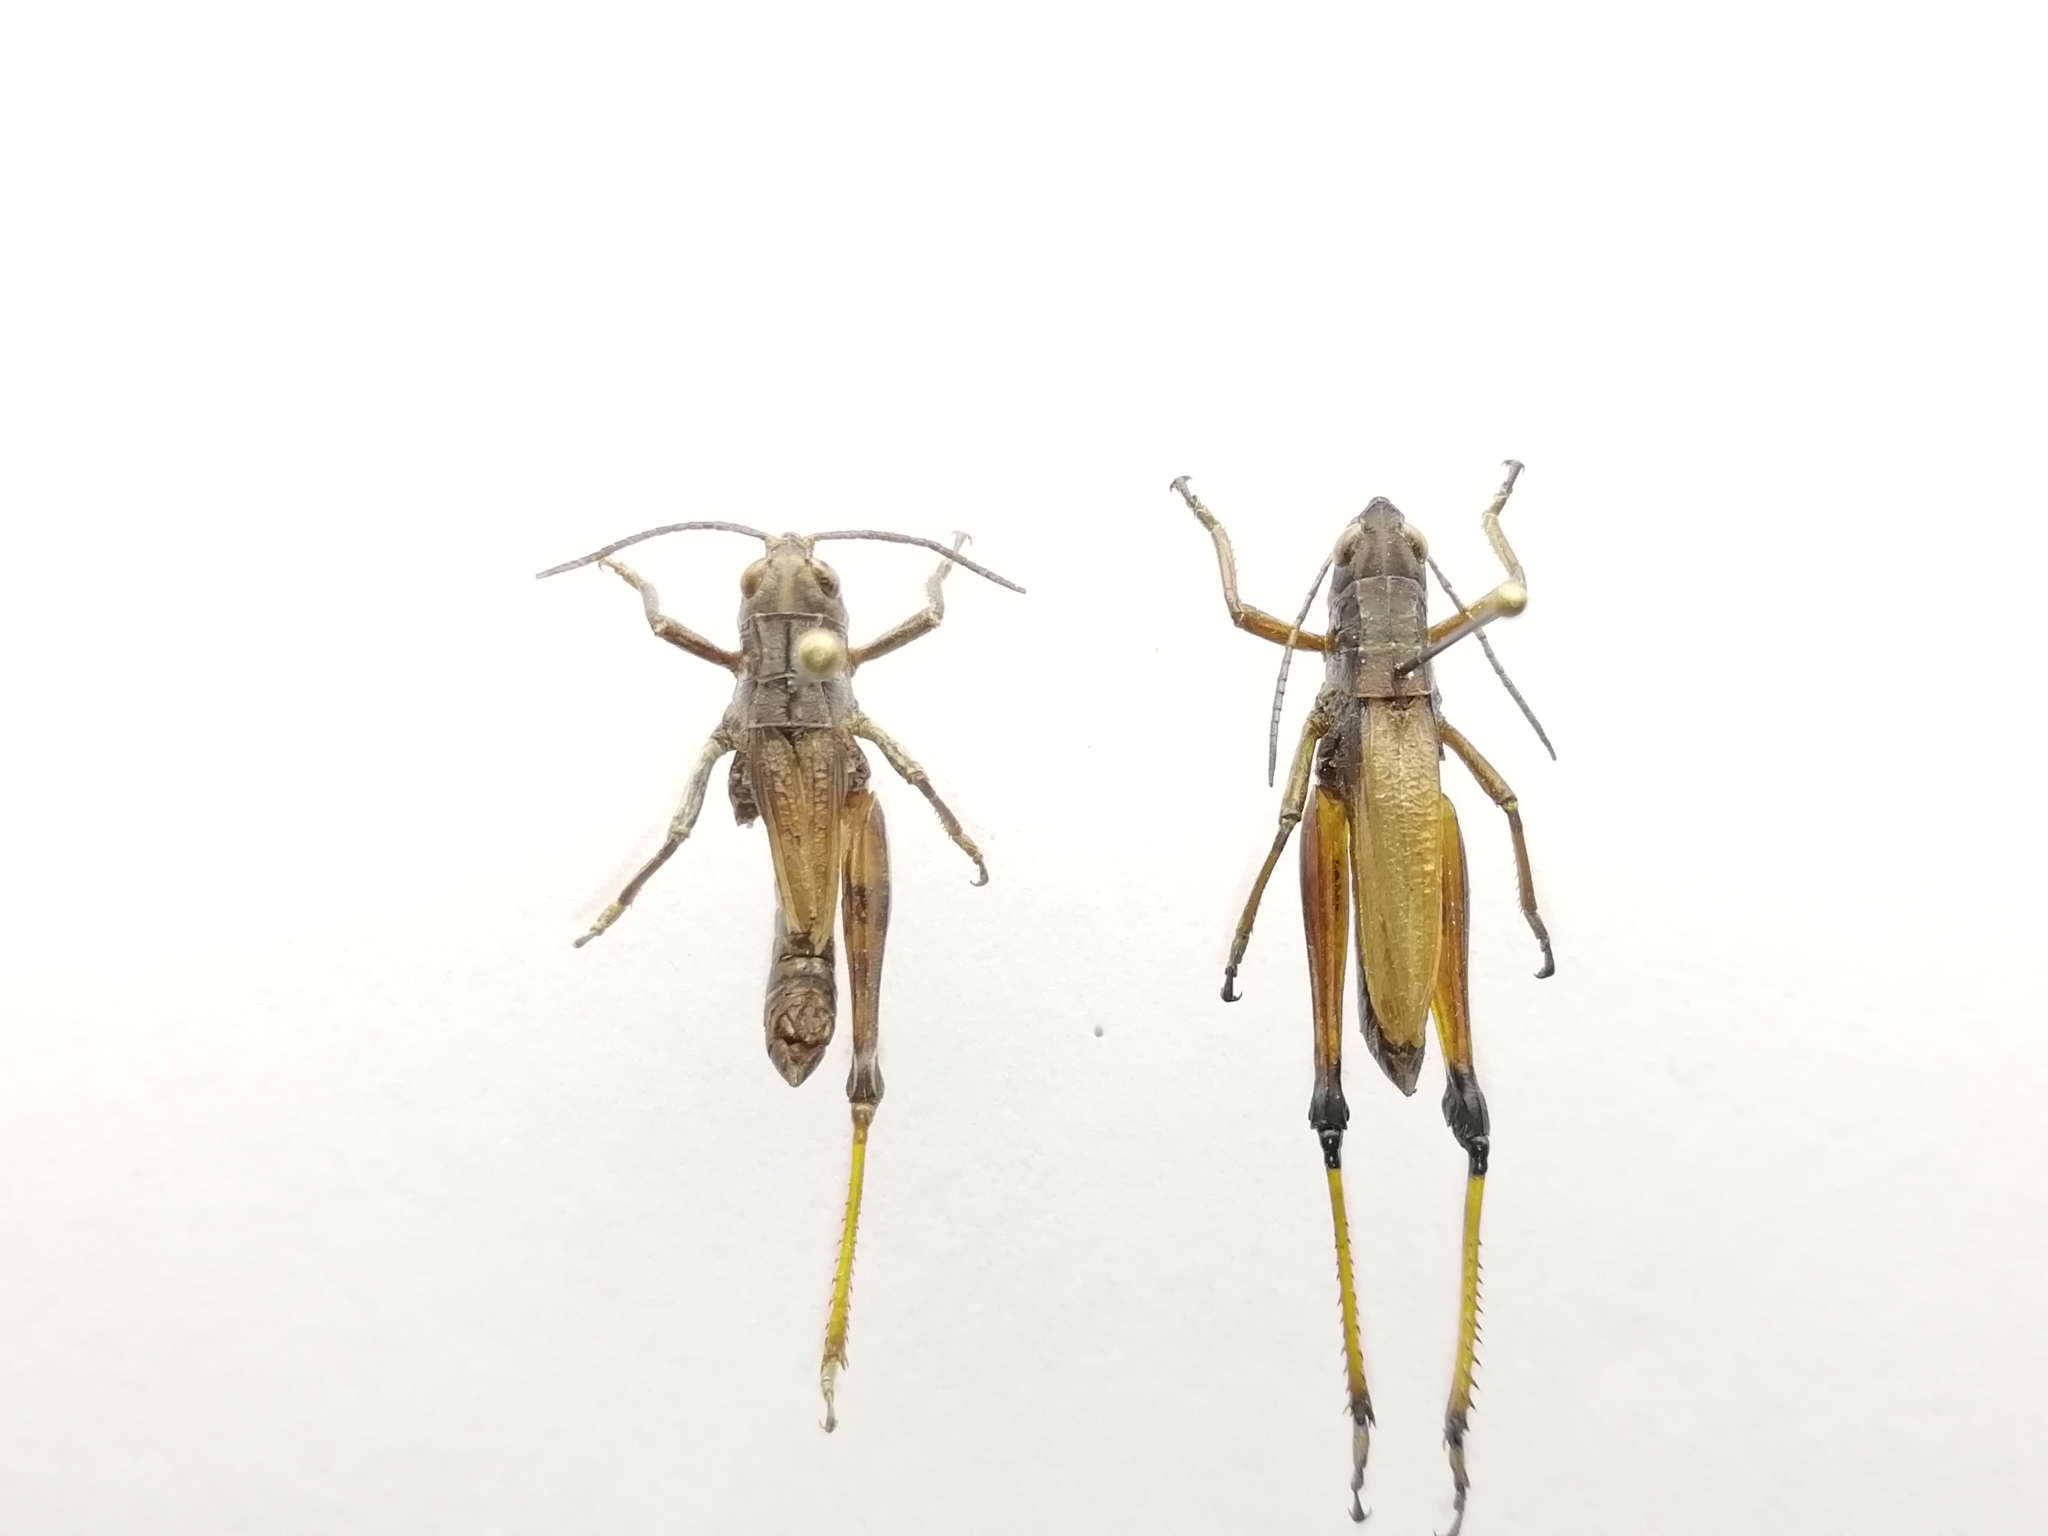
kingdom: Animalia
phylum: Arthropoda
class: Insecta
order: Orthoptera
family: Acrididae
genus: Podismopsis
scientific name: Podismopsis altaica
